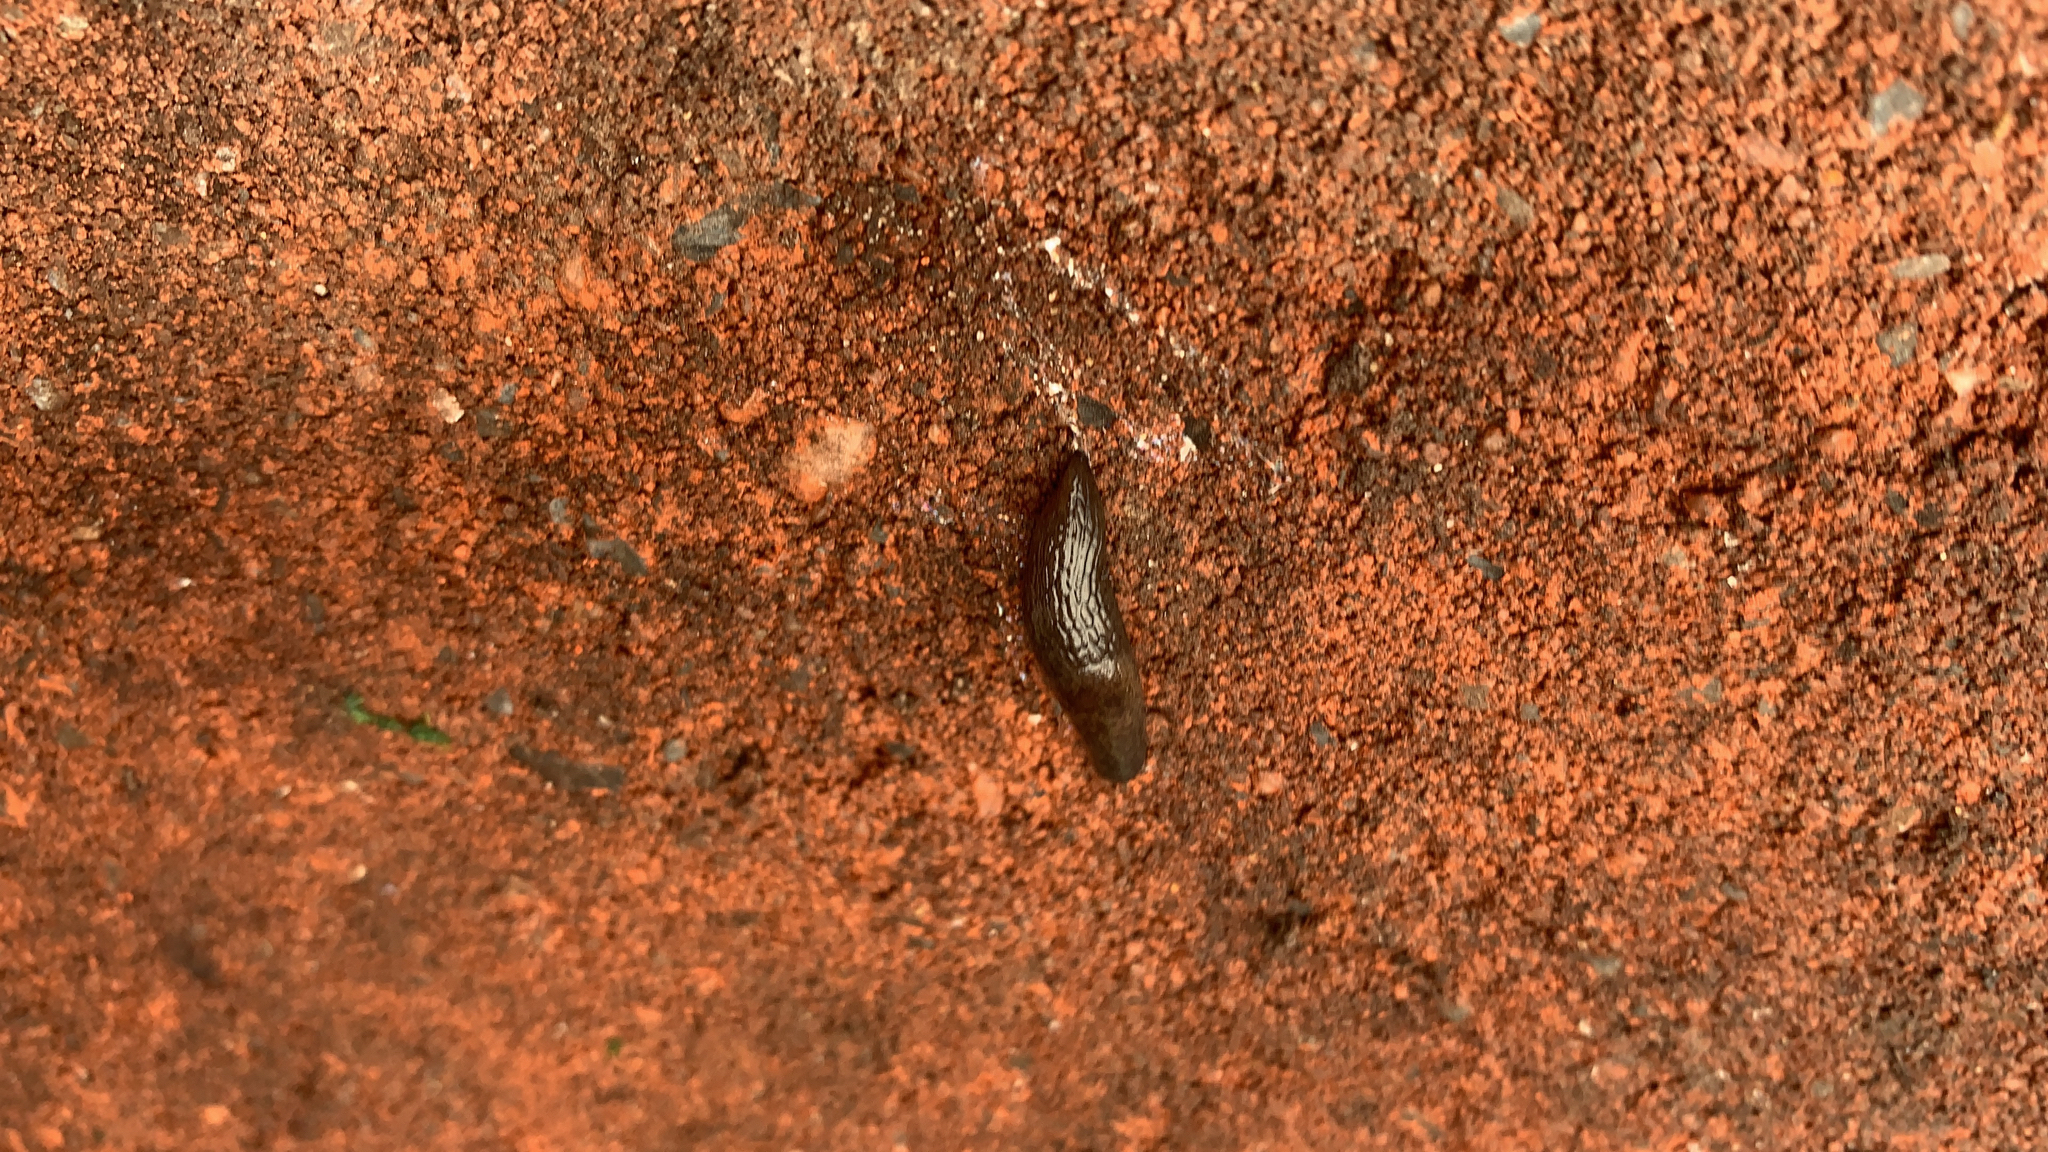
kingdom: Animalia
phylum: Mollusca
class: Gastropoda
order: Stylommatophora
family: Agriolimacidae
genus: Deroceras
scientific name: Deroceras
